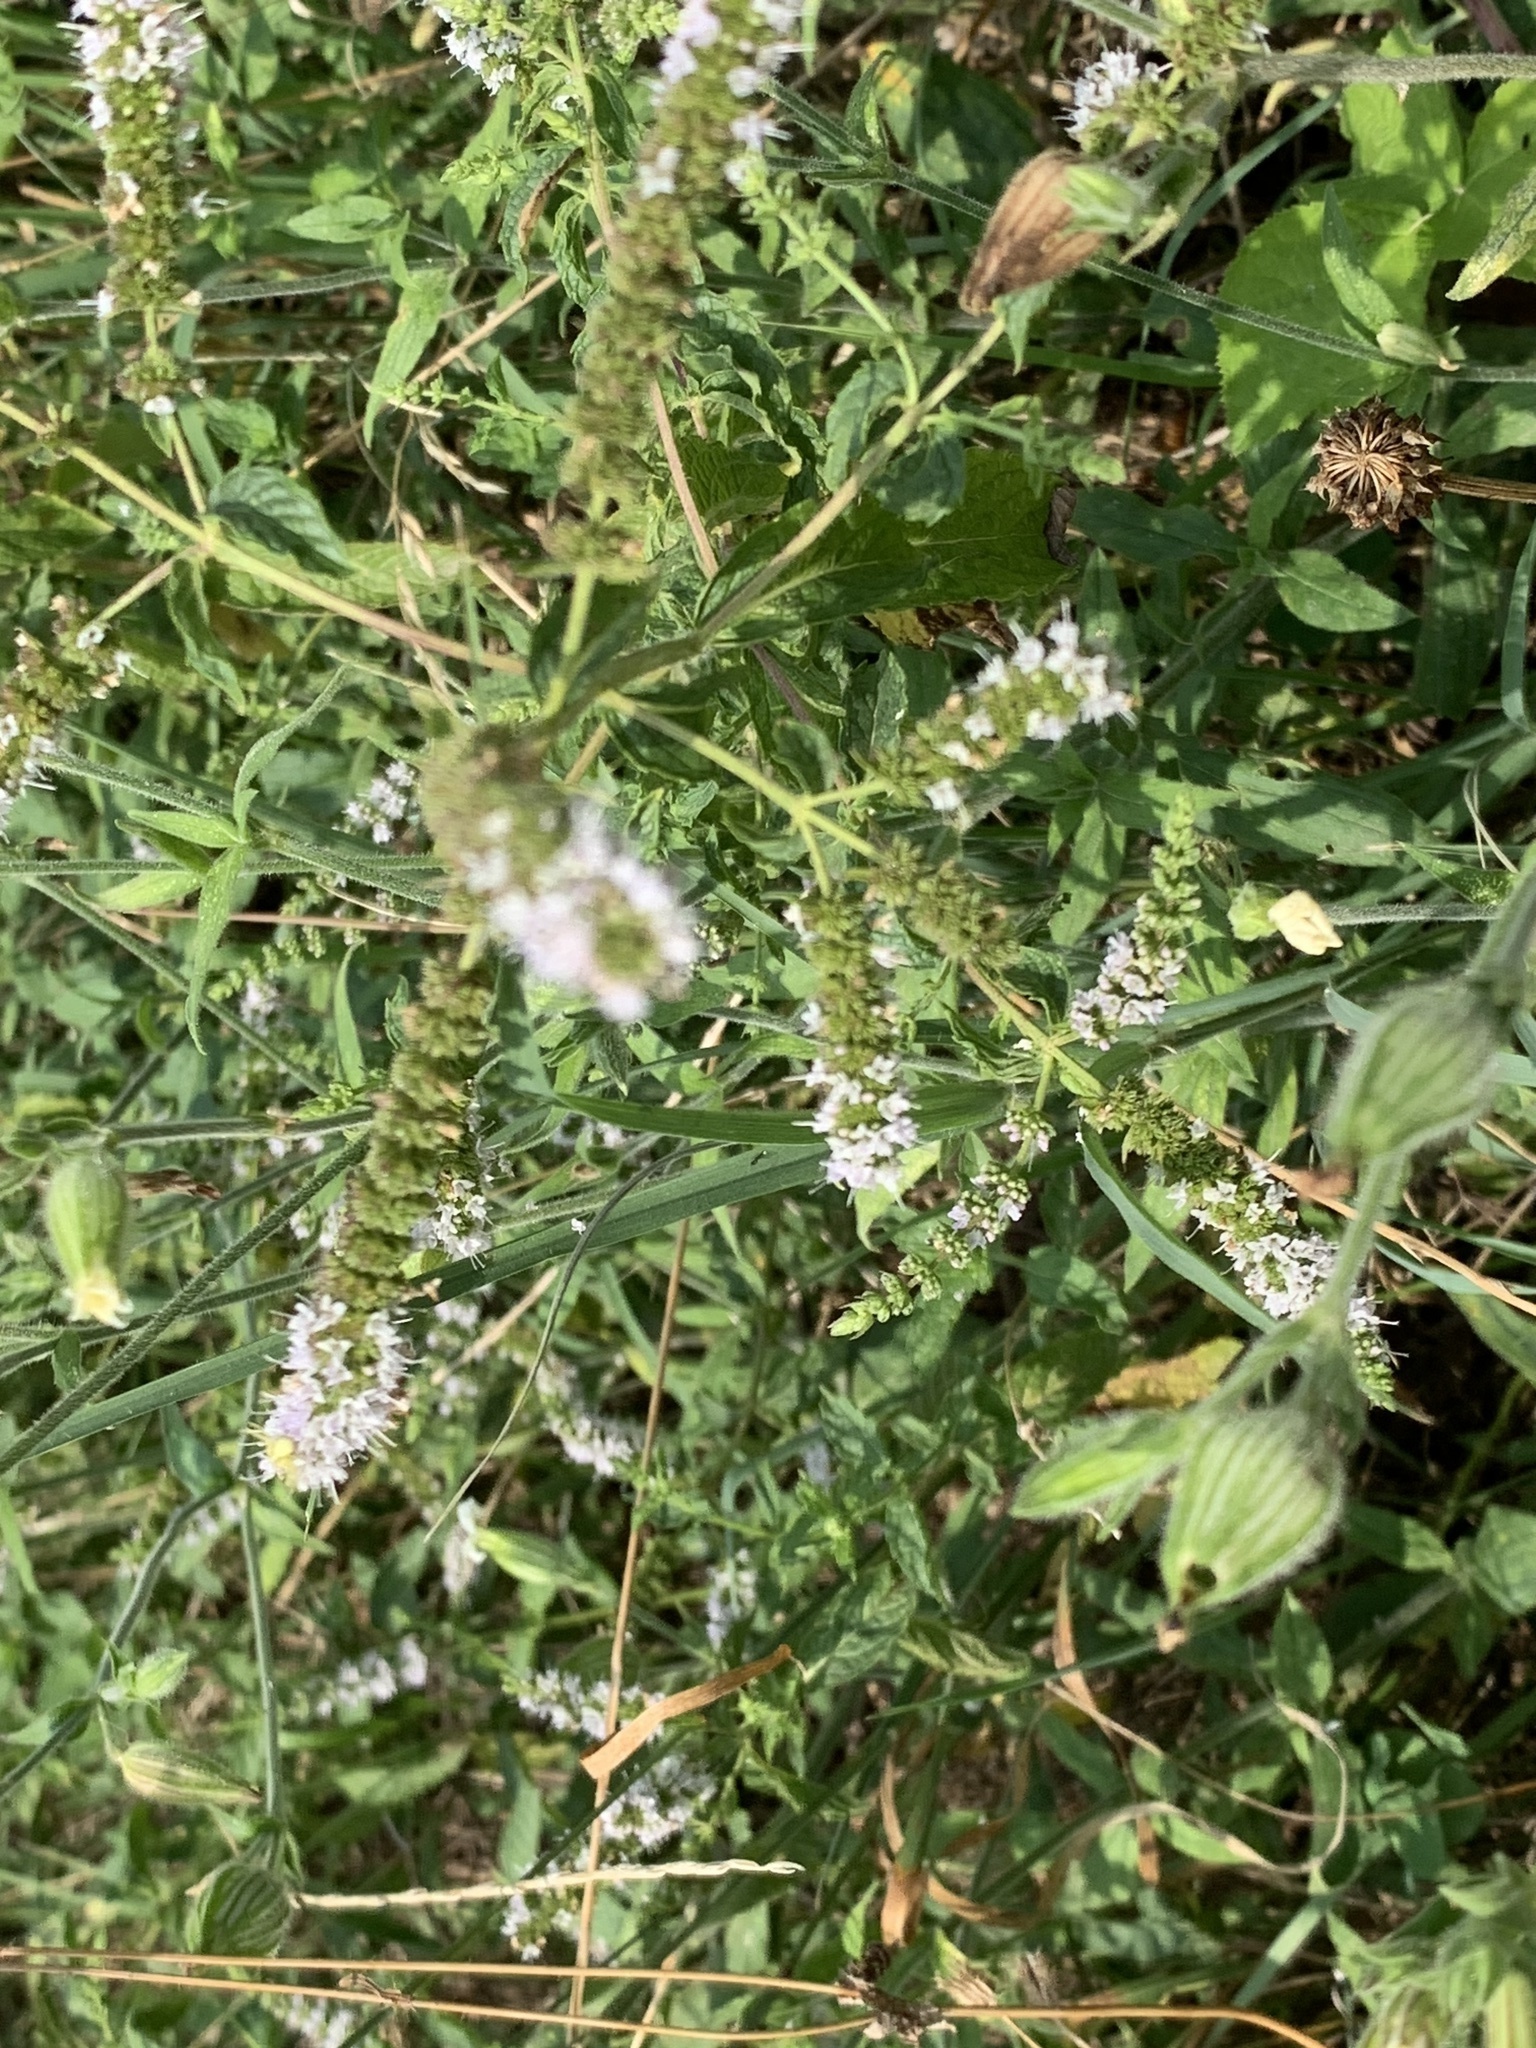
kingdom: Plantae
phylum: Tracheophyta
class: Magnoliopsida
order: Lamiales
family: Lamiaceae
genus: Mentha
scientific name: Mentha spicata
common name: Spearmint
